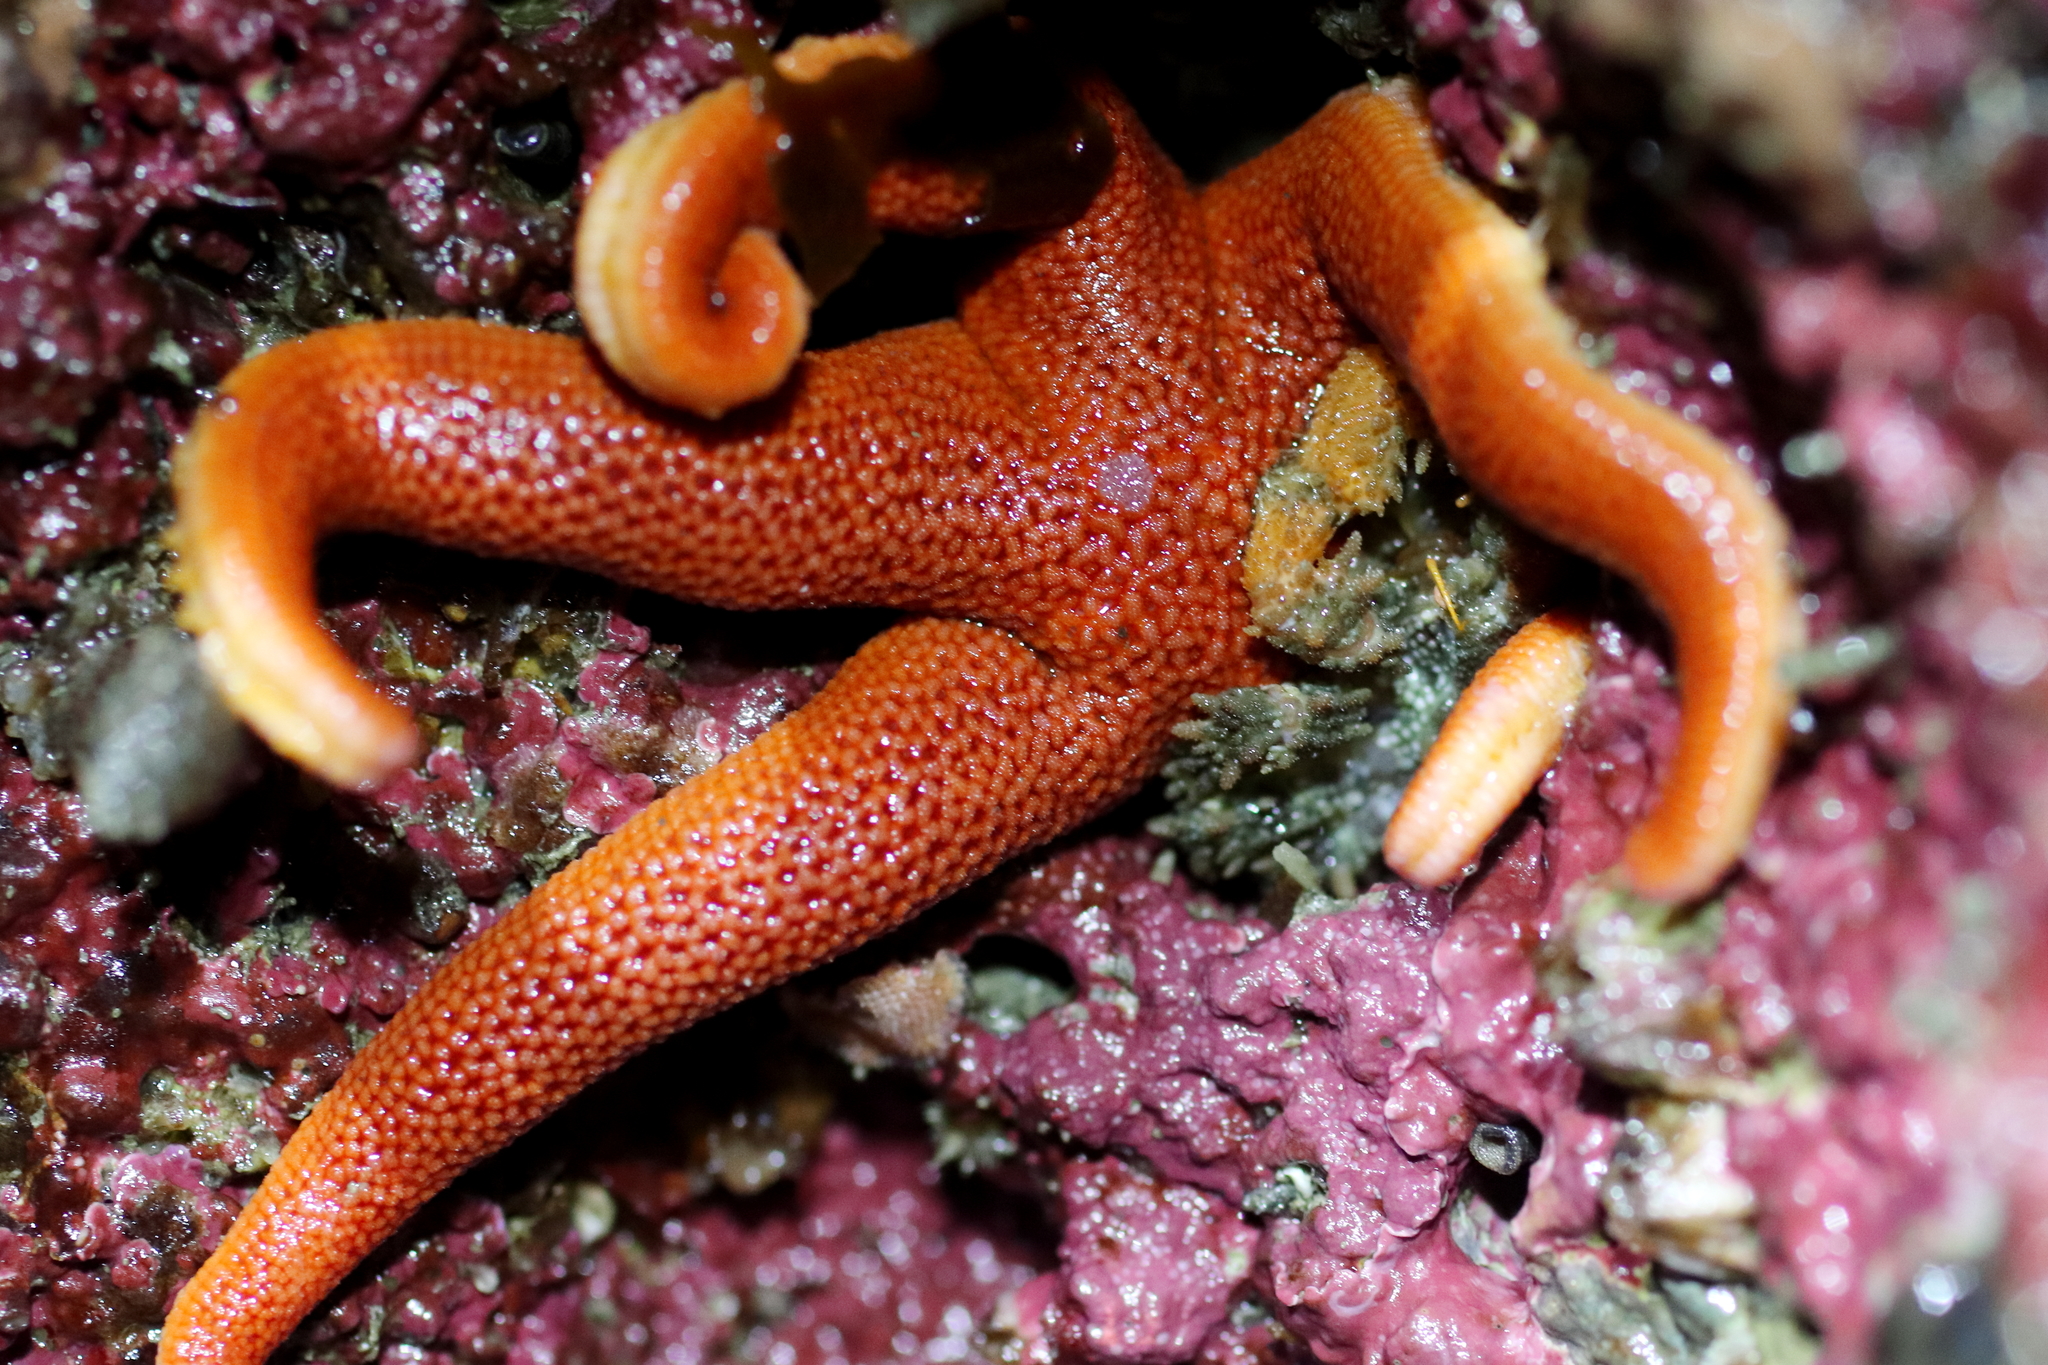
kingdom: Animalia
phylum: Echinodermata
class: Asteroidea
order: Spinulosida
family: Echinasteridae
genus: Henricia
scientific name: Henricia
